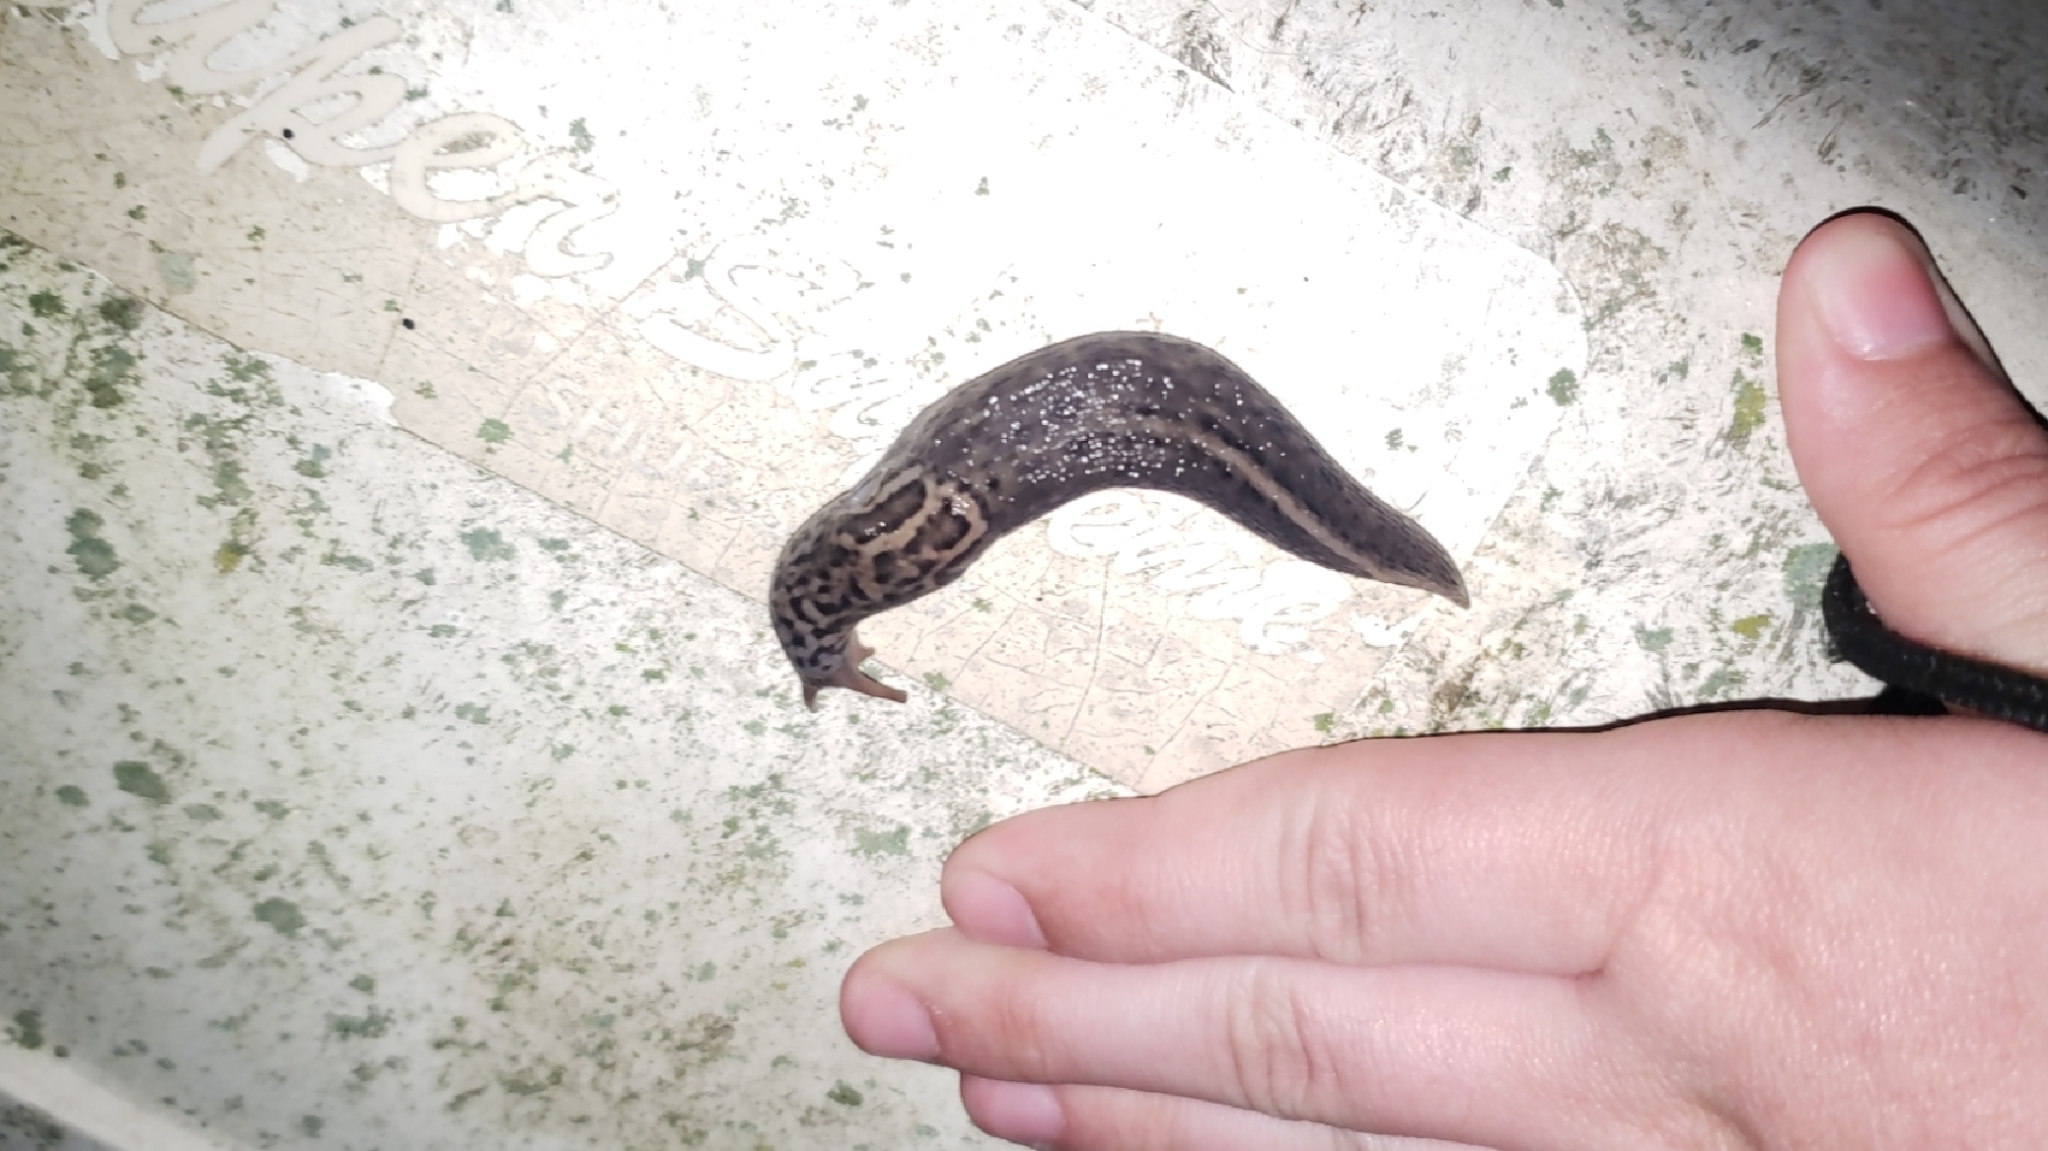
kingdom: Animalia
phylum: Mollusca
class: Gastropoda
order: Stylommatophora
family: Limacidae
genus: Limax
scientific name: Limax maximus
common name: Great grey slug
